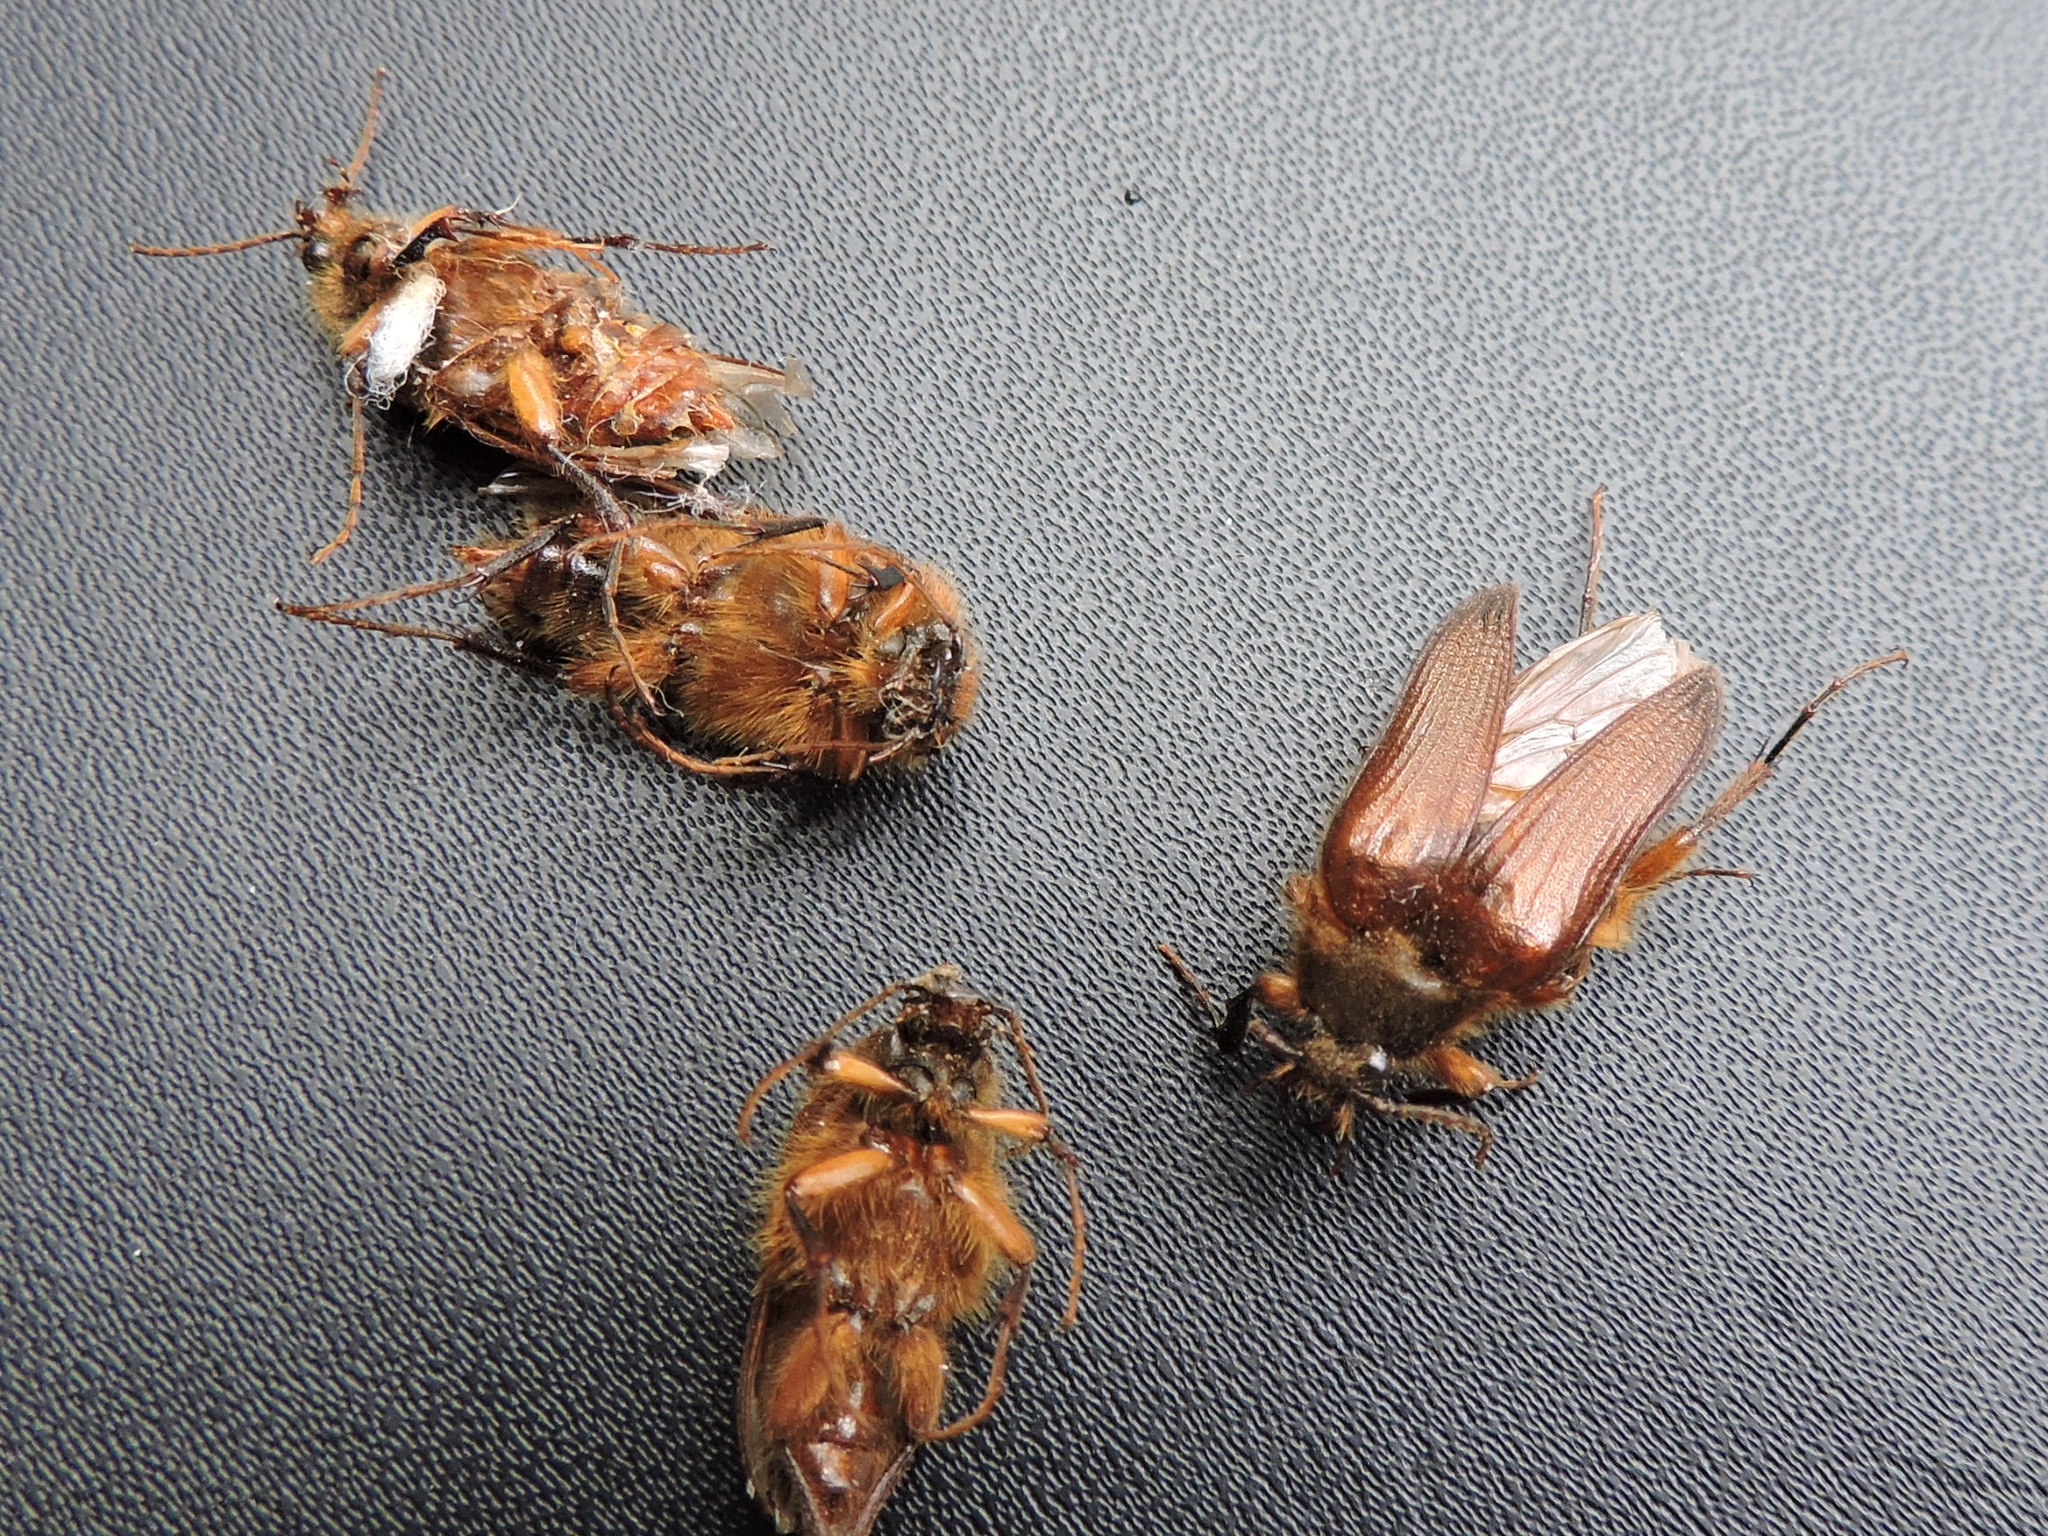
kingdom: Animalia
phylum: Arthropoda
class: Insecta
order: Coleoptera
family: Elateridae
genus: Scaptolenus
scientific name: Scaptolenus
